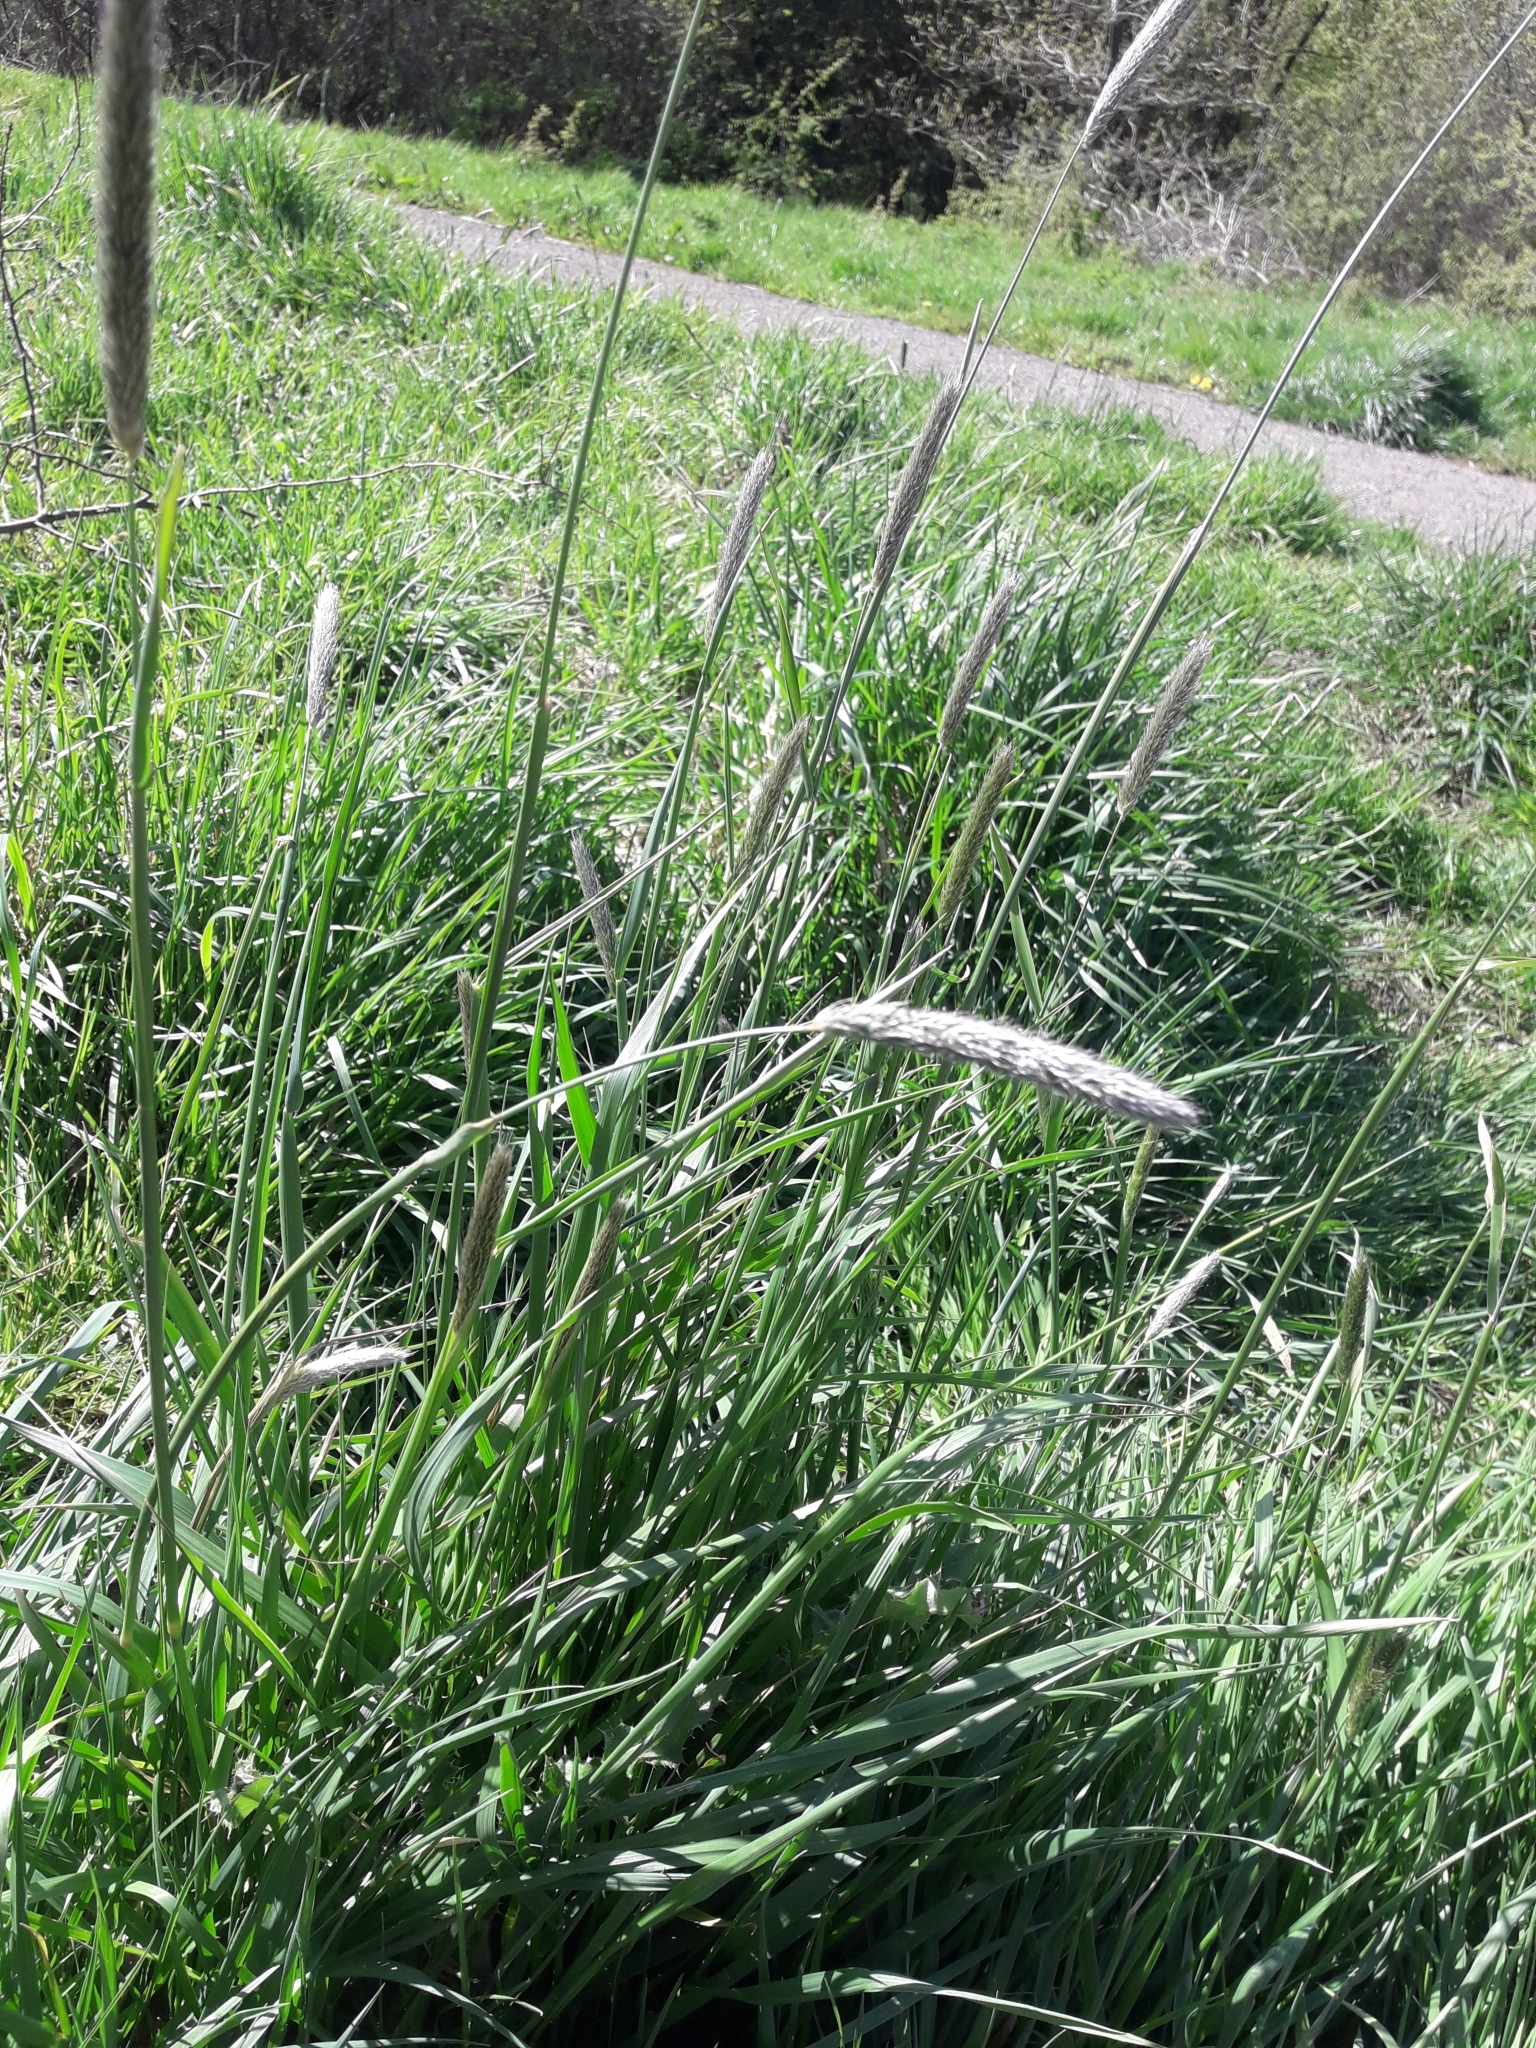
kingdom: Plantae
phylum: Tracheophyta
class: Liliopsida
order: Poales
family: Poaceae
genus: Alopecurus
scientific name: Alopecurus pratensis
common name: Meadow foxtail
